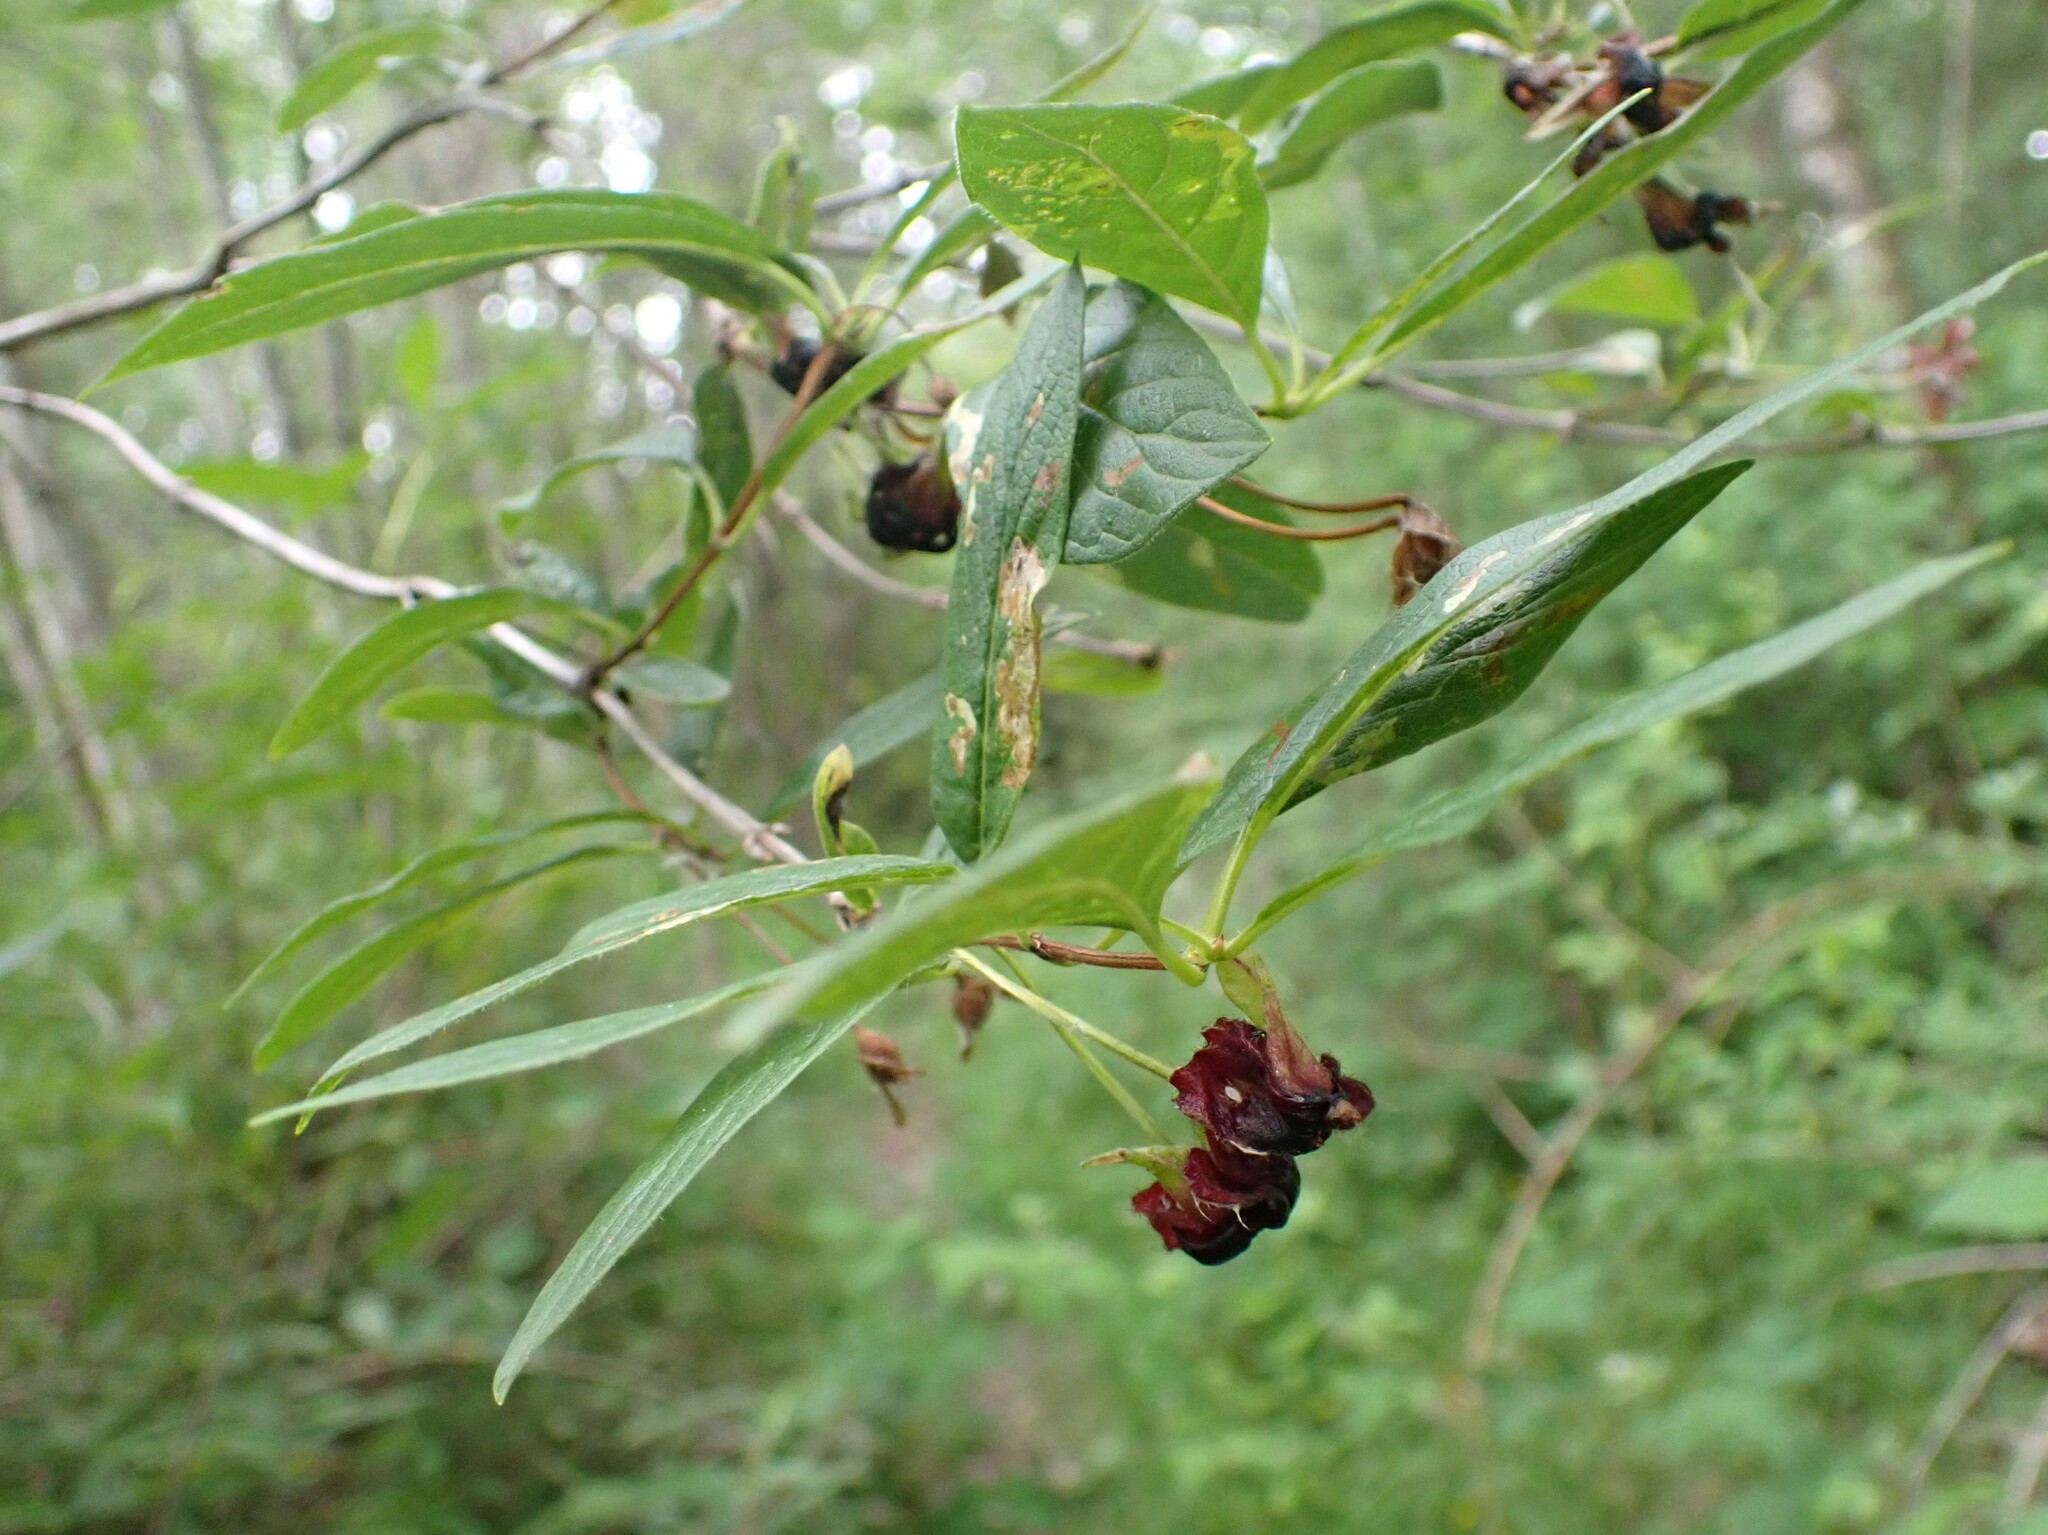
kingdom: Plantae
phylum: Tracheophyta
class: Magnoliopsida
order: Dipsacales
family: Caprifoliaceae
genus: Lonicera
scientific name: Lonicera involucrata
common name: Californian honeysuckle
